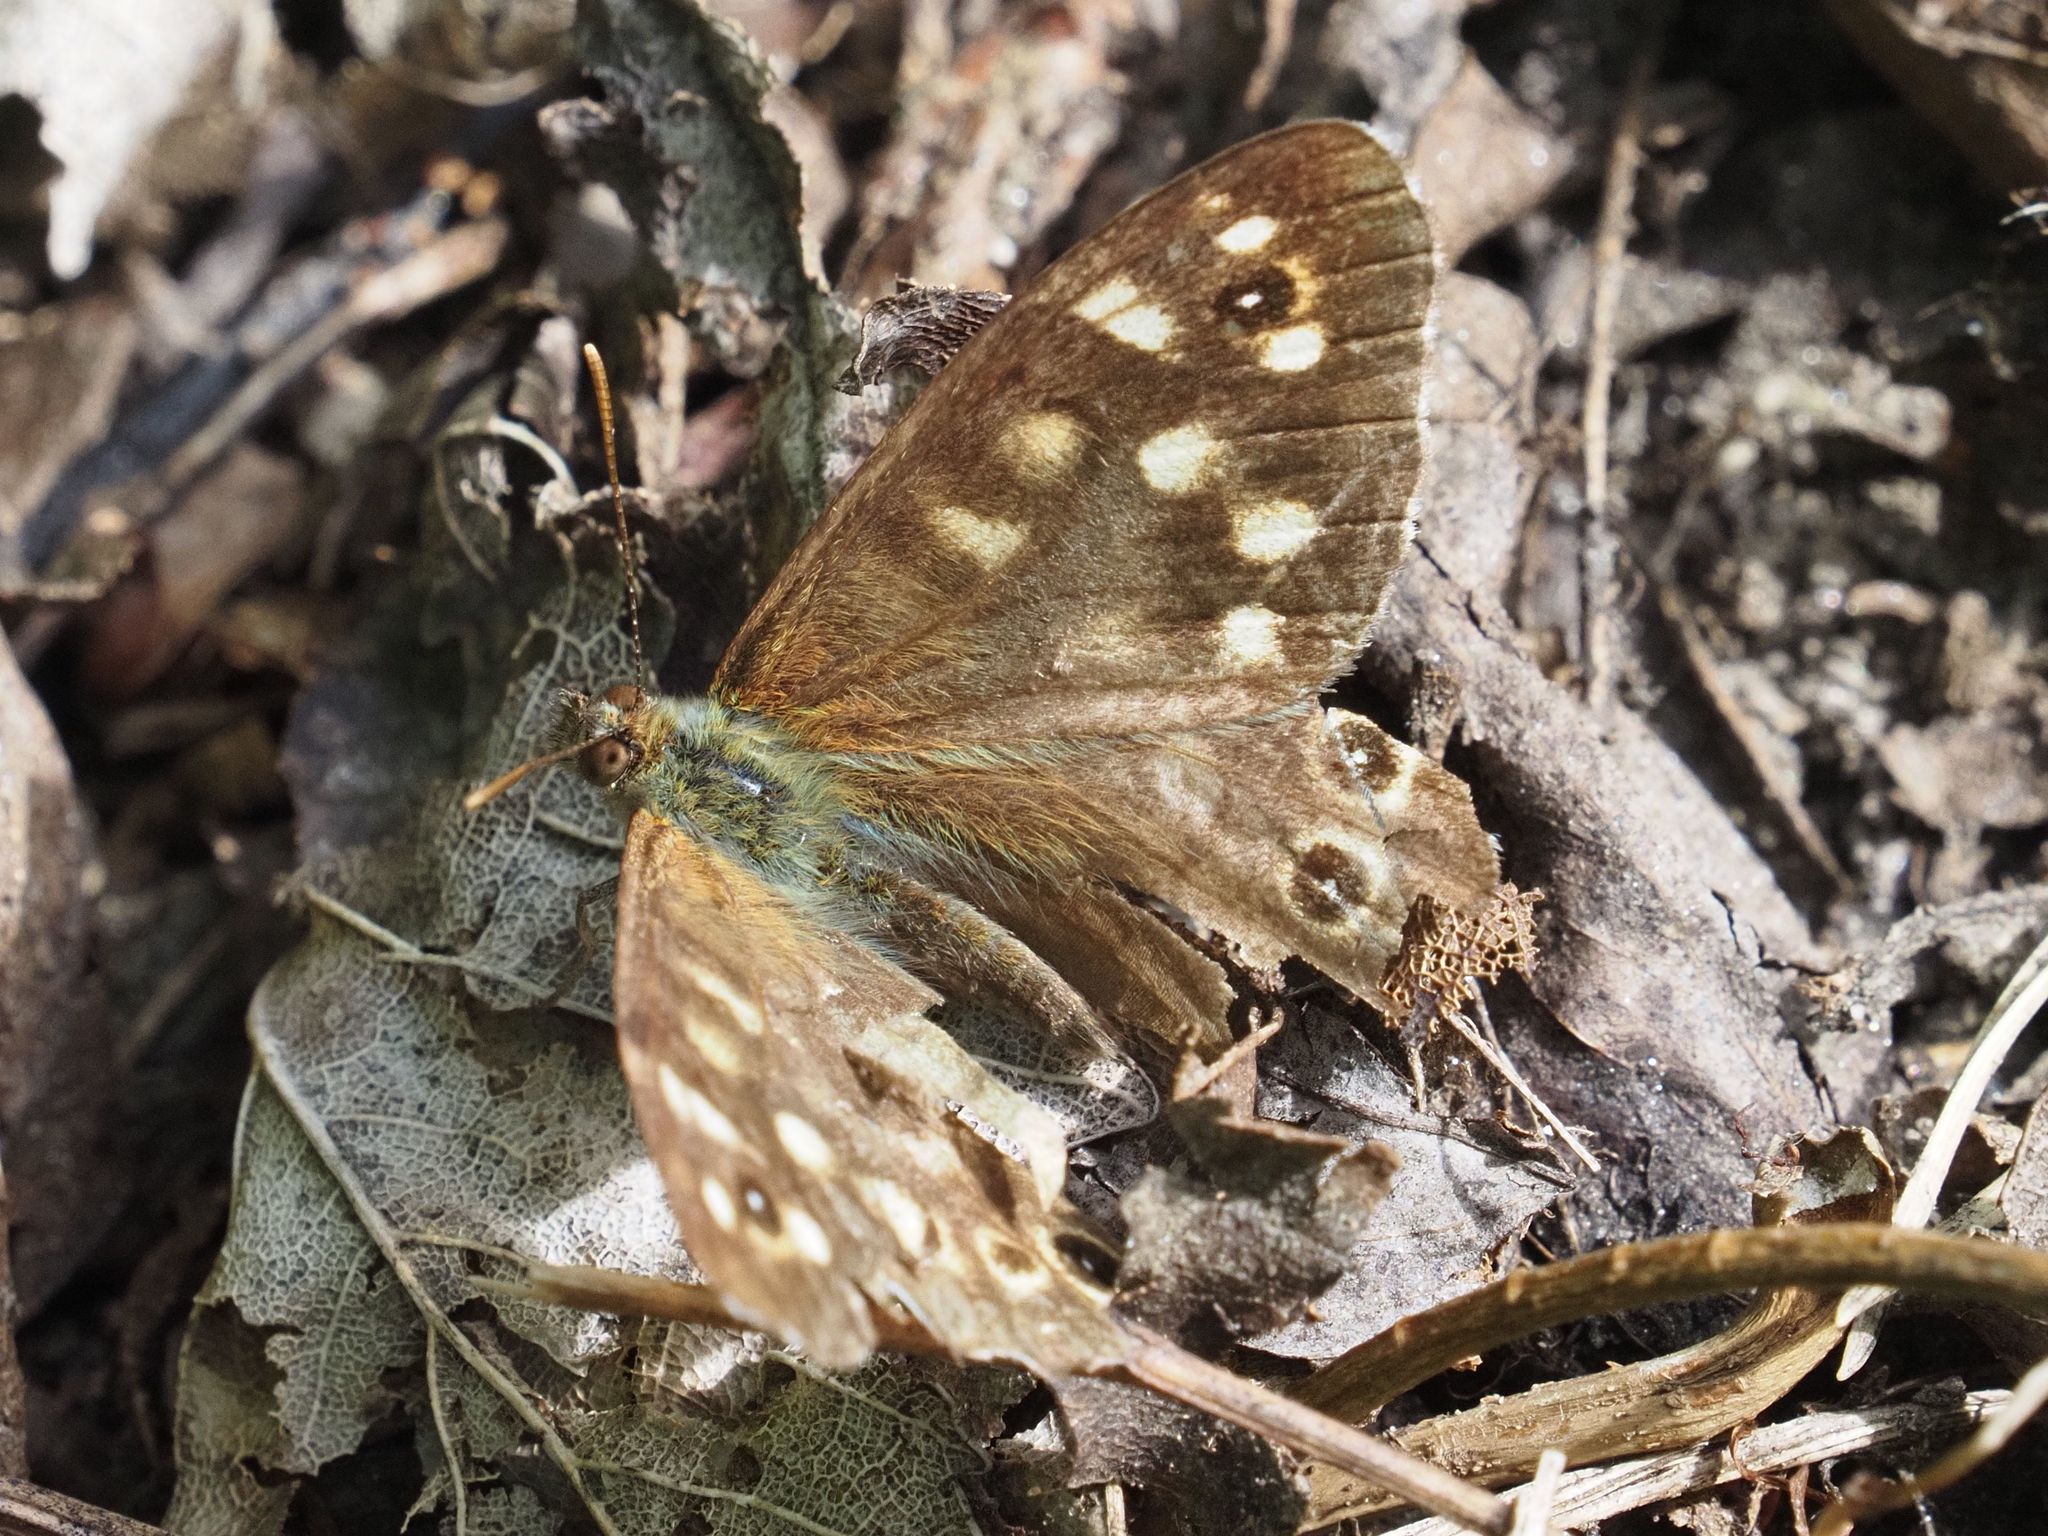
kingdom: Animalia
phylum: Arthropoda
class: Insecta
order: Lepidoptera
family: Nymphalidae
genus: Pararge
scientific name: Pararge aegeria
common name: Speckled wood
